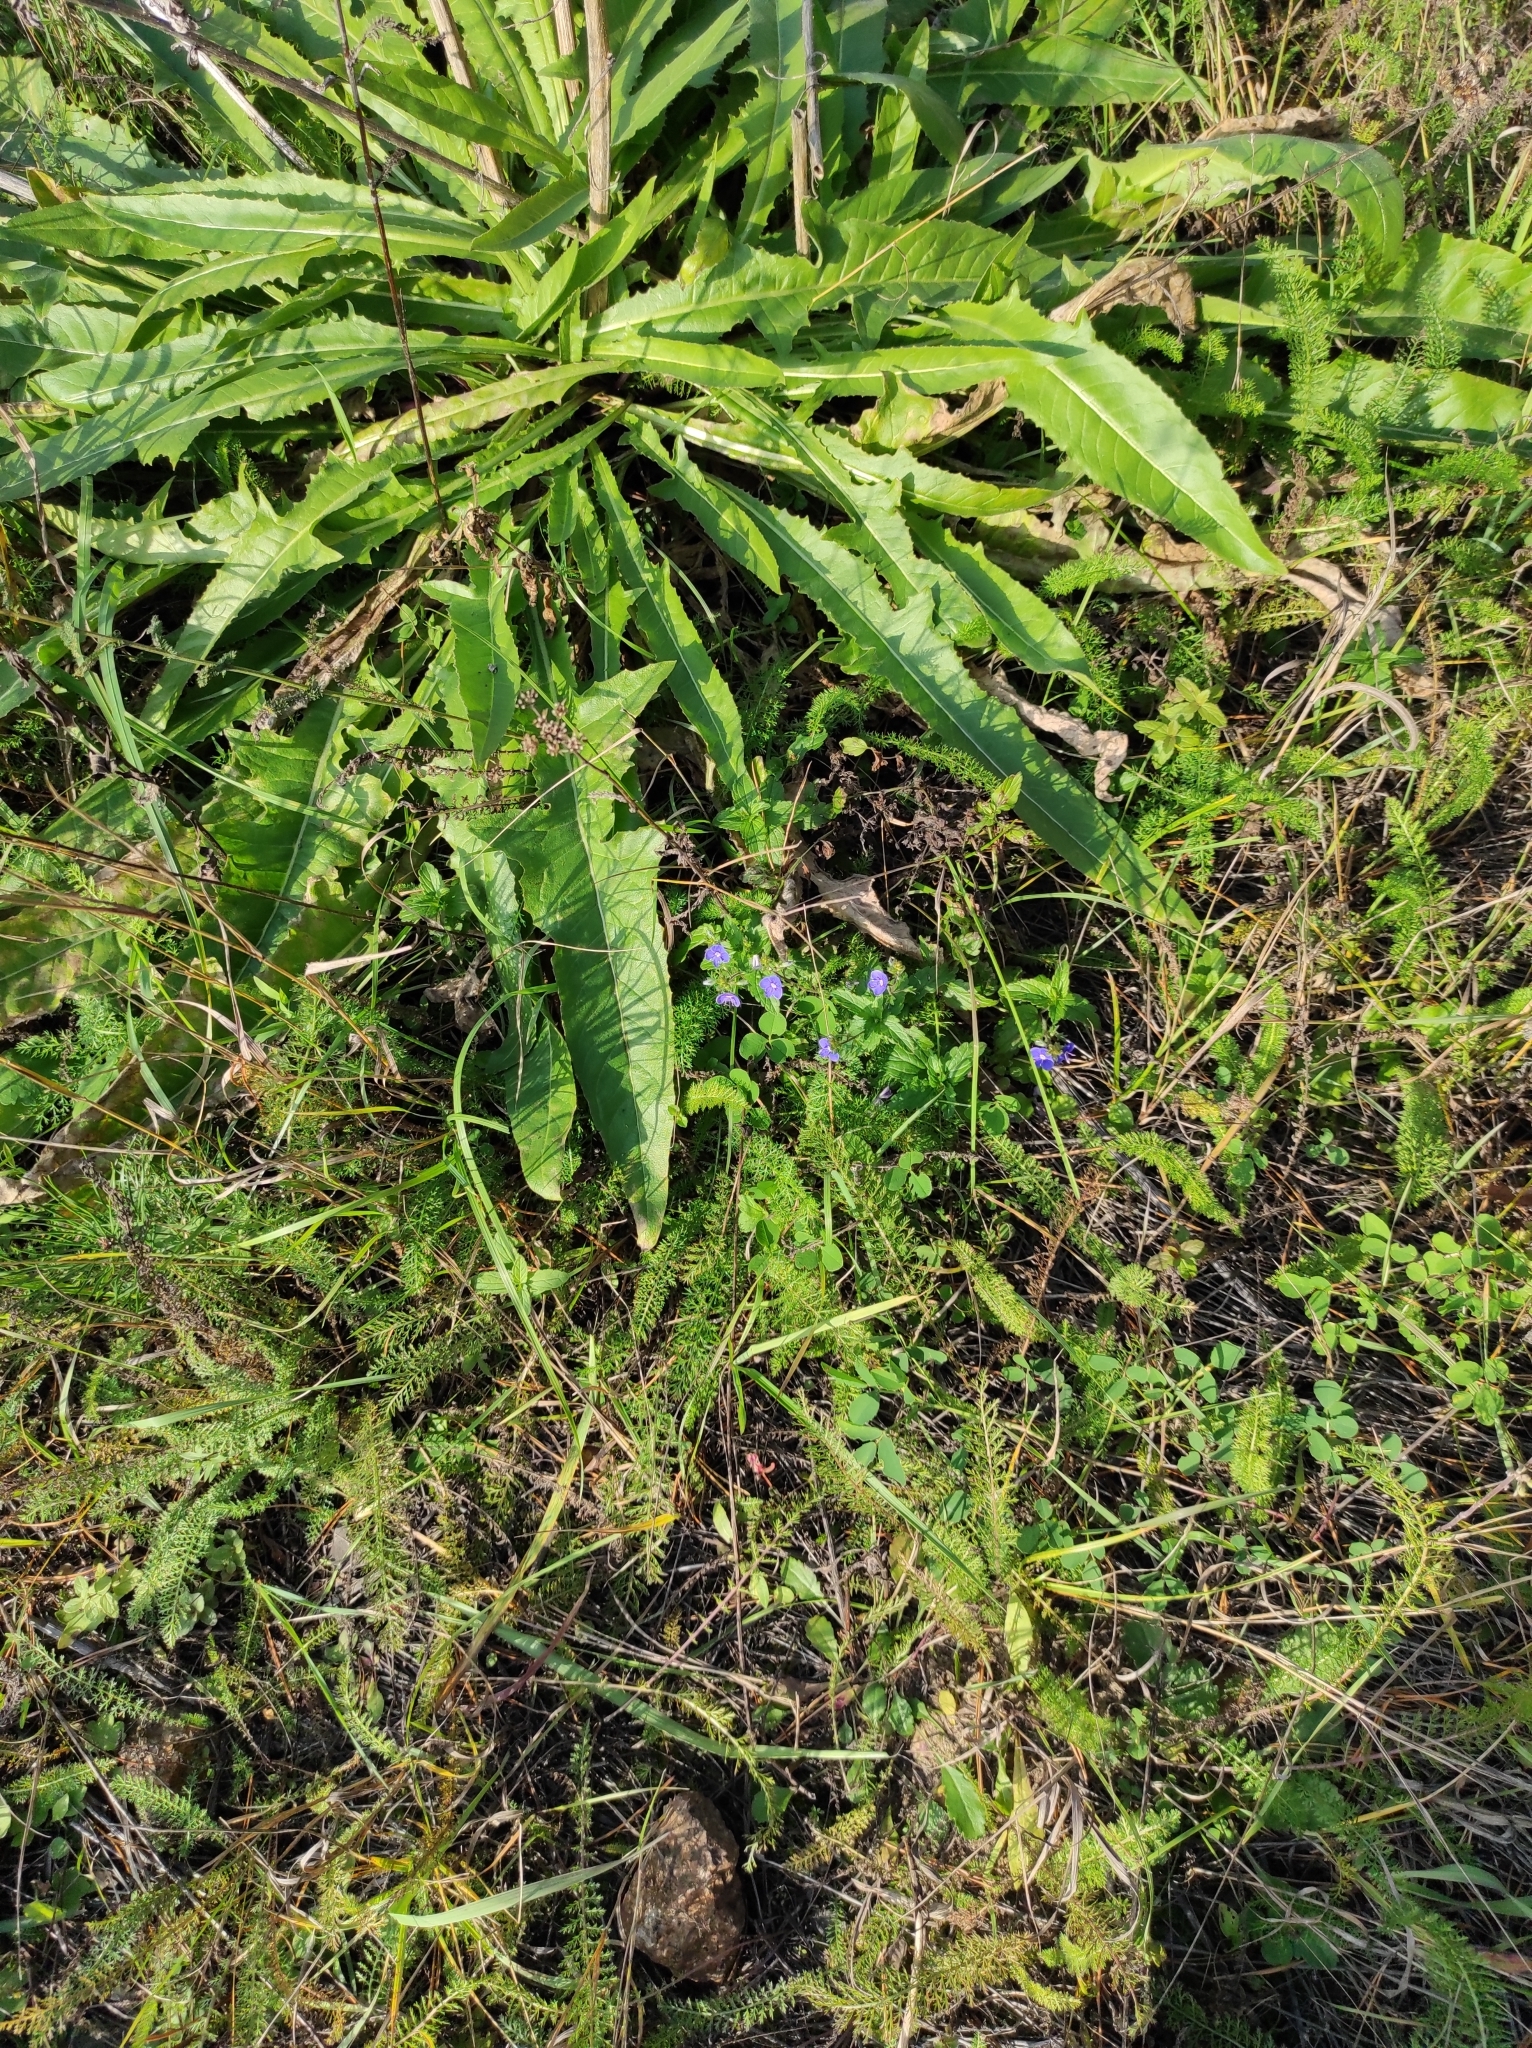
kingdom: Plantae
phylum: Tracheophyta
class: Magnoliopsida
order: Brassicales
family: Brassicaceae
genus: Bunias
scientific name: Bunias orientalis
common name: Warty-cabbage
